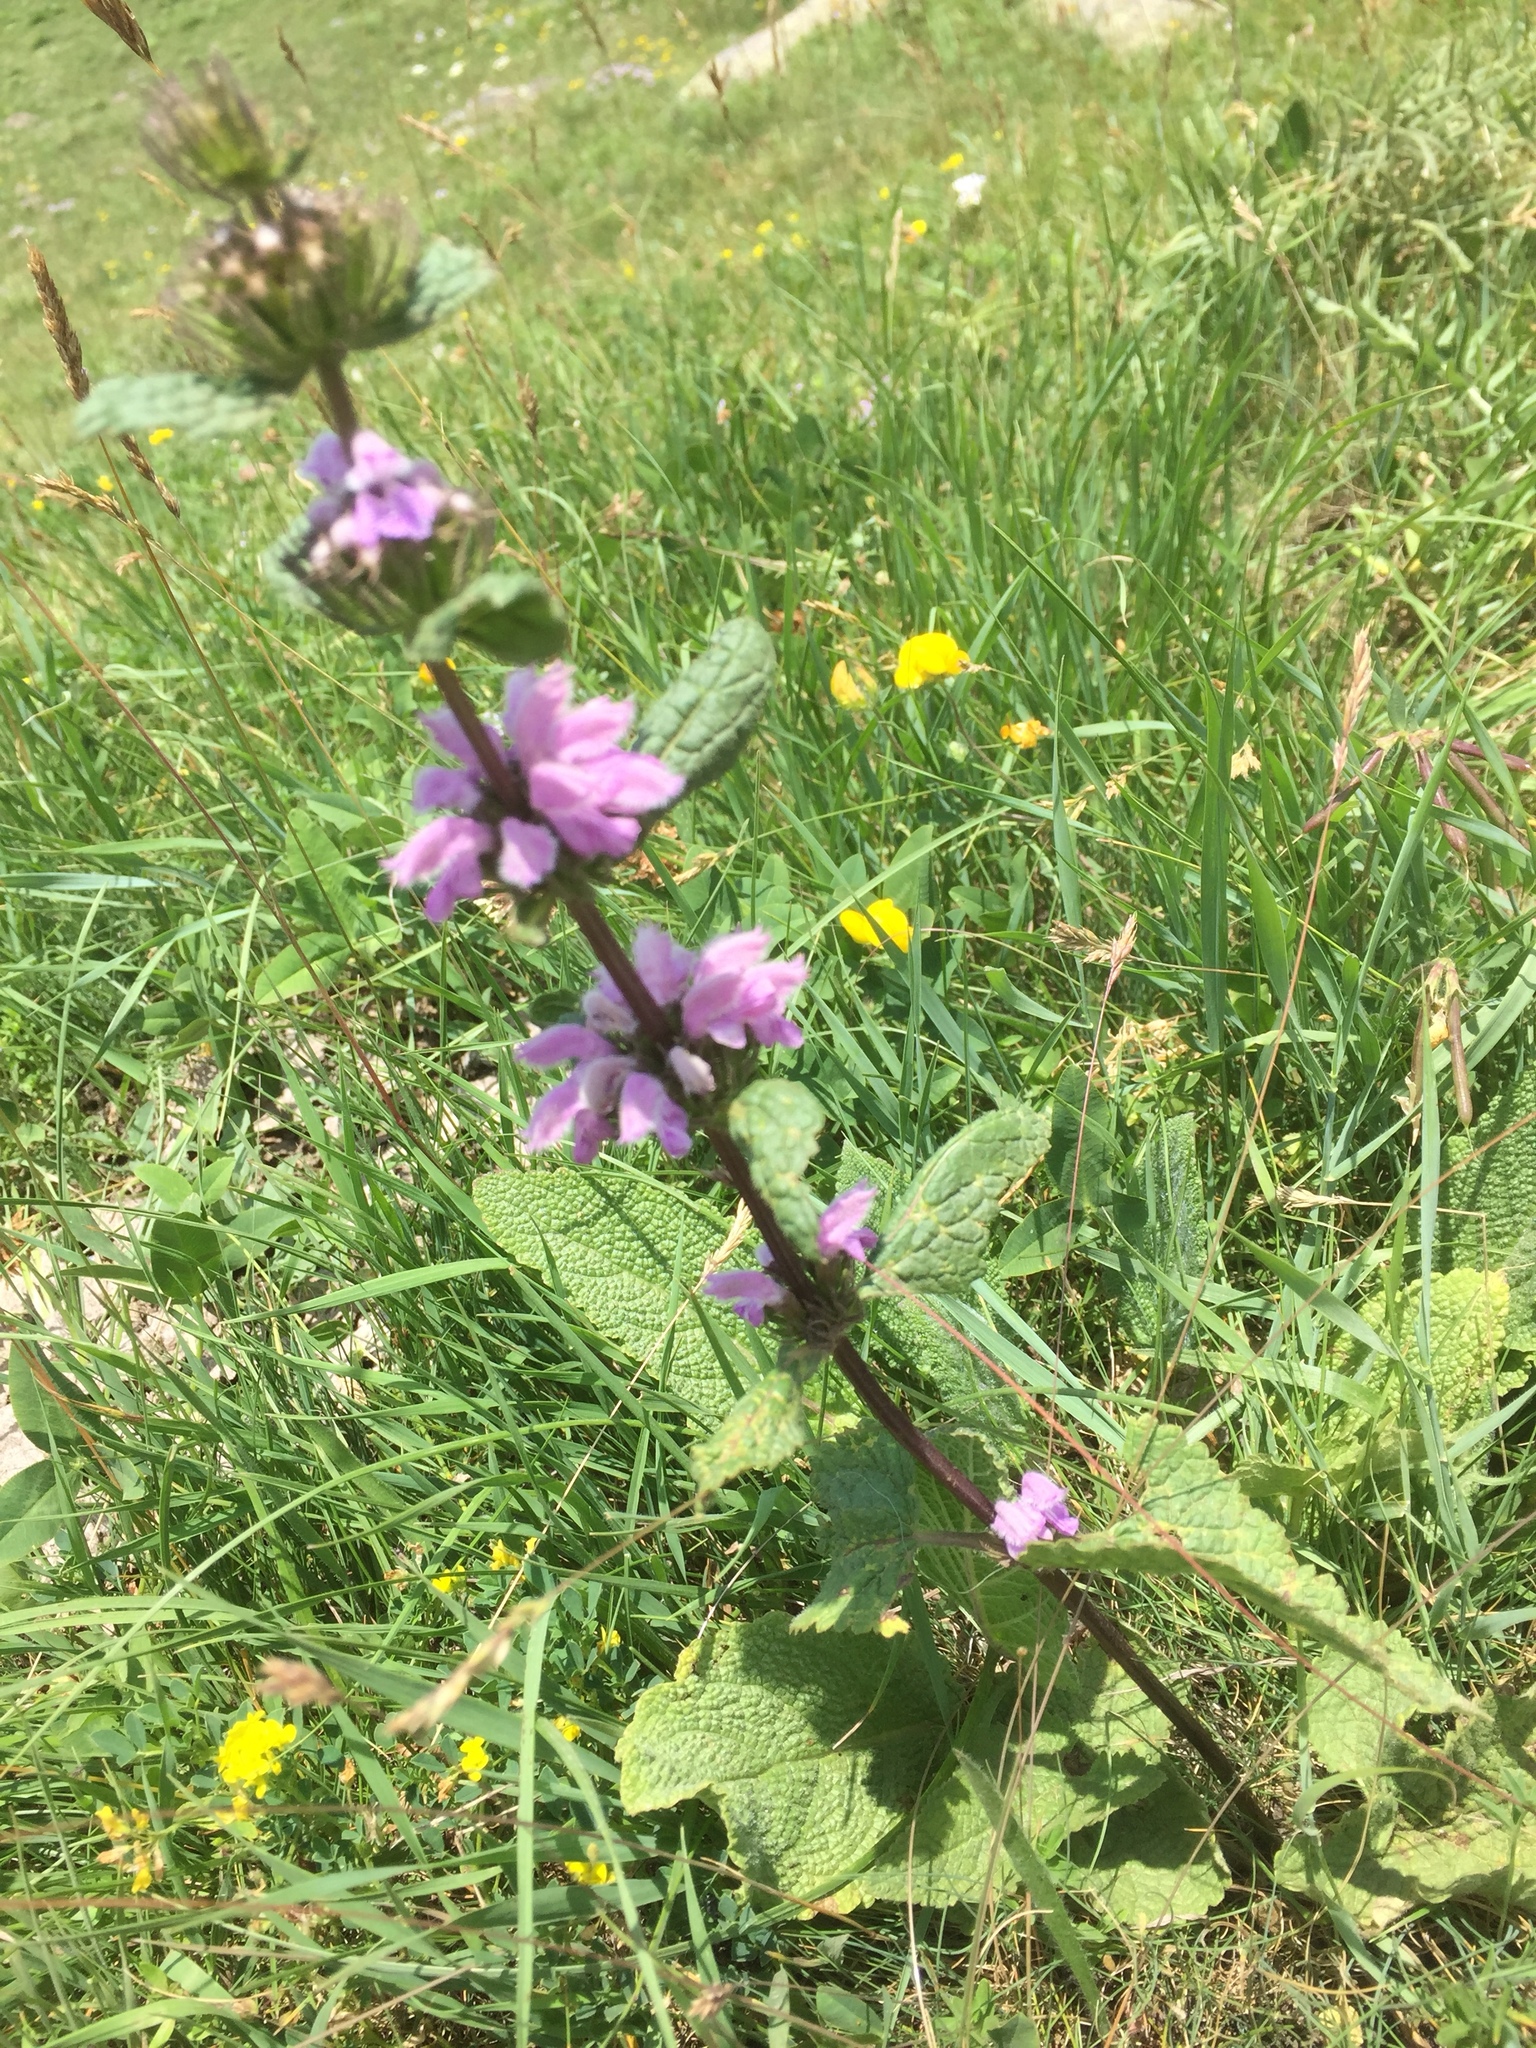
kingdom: Plantae
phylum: Tracheophyta
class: Magnoliopsida
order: Lamiales
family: Lamiaceae
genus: Phlomoides
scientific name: Phlomoides tuberosa
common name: Tuberous jerusalem sage
